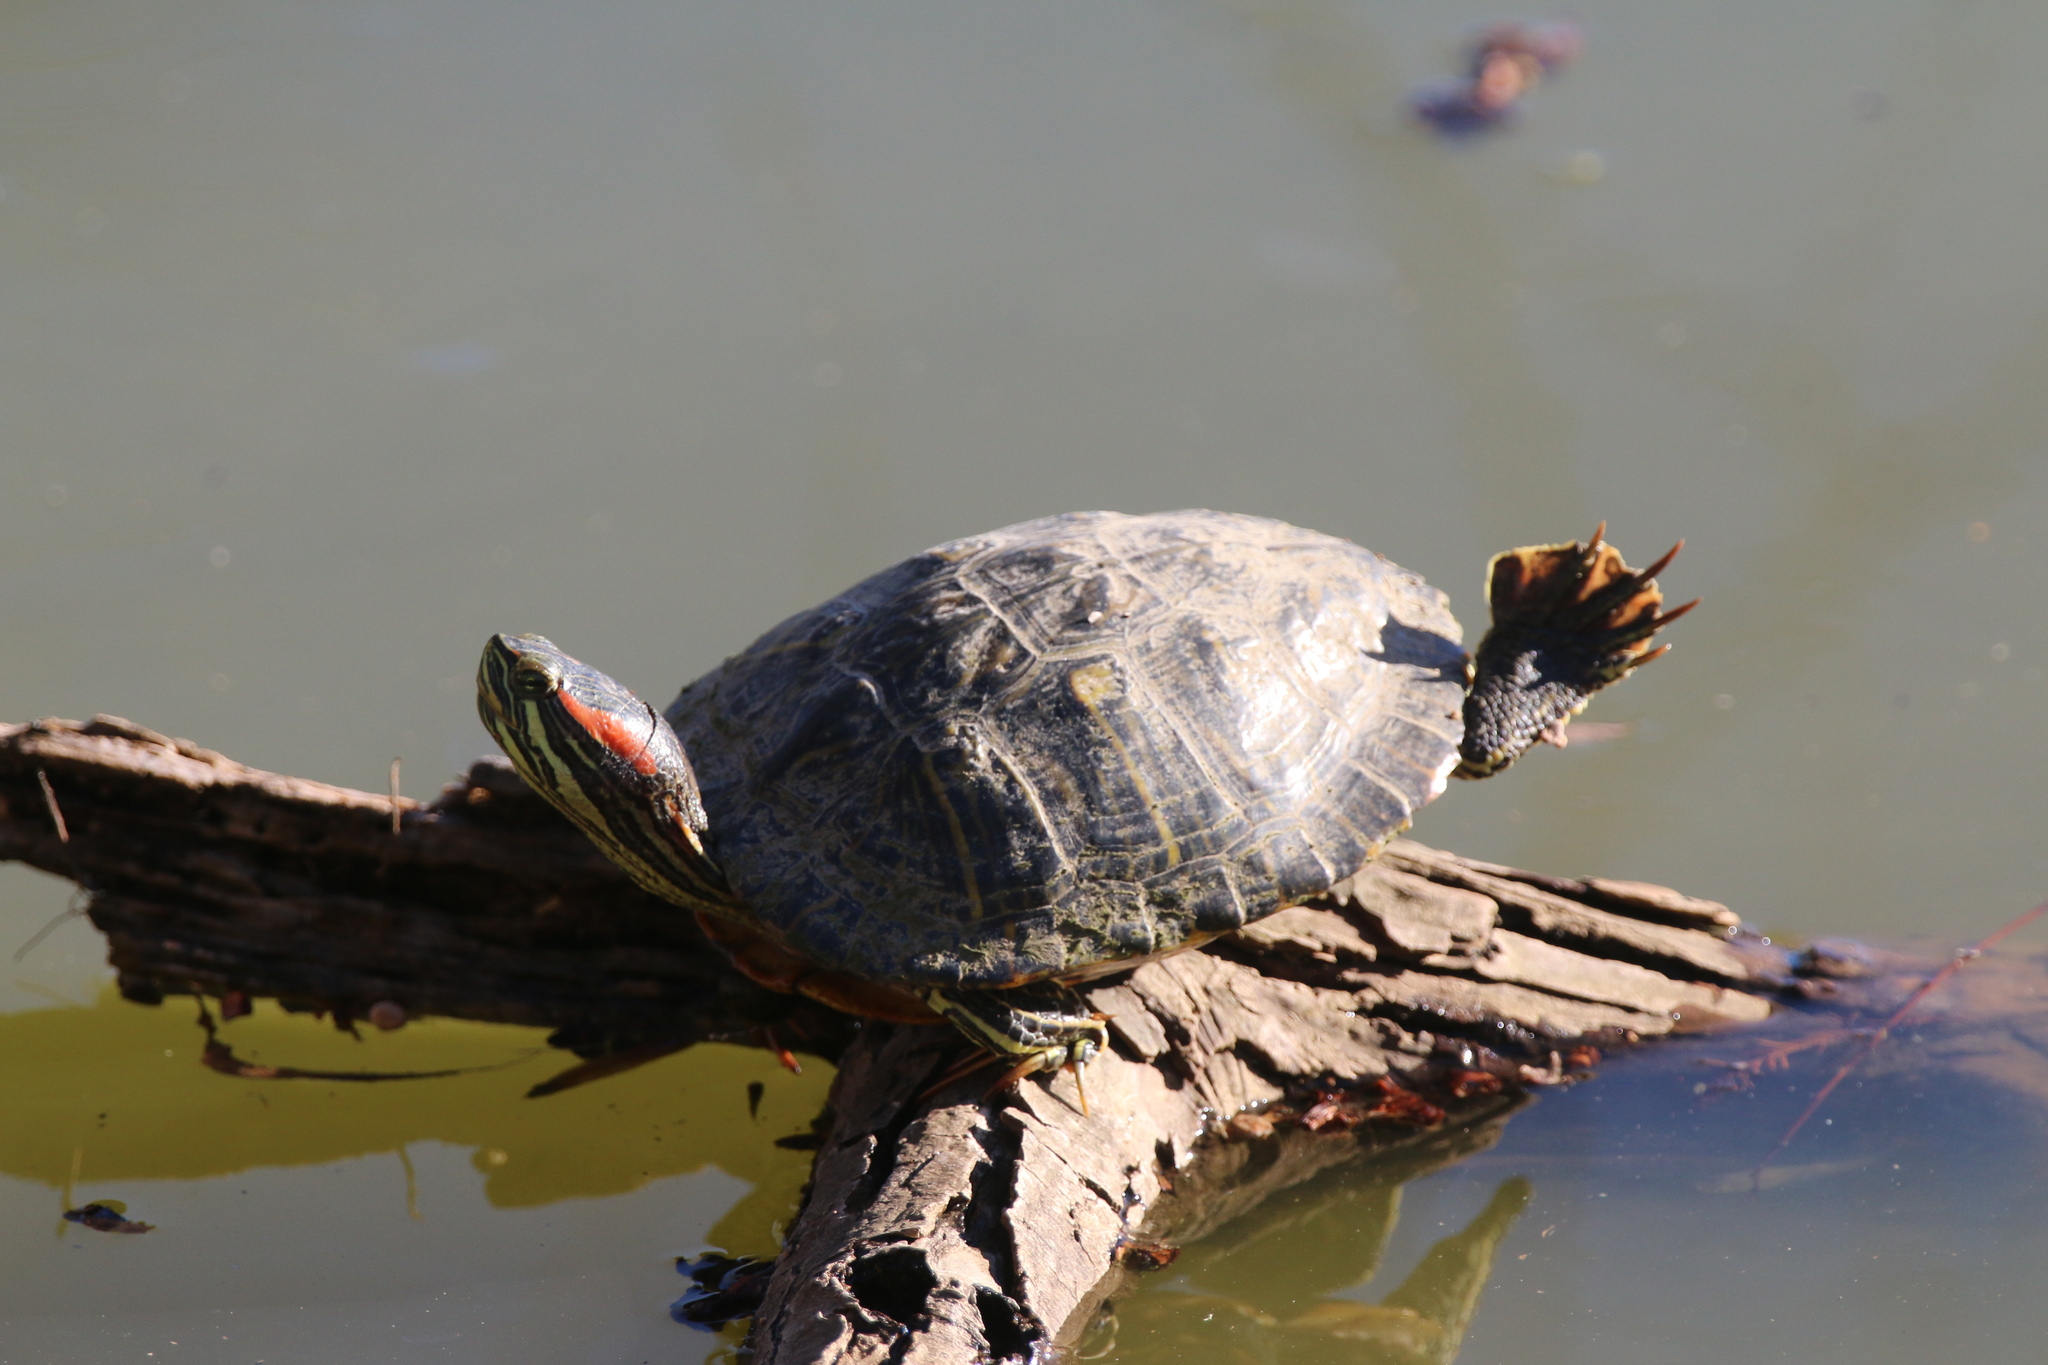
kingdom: Animalia
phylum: Chordata
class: Testudines
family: Emydidae
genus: Trachemys
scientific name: Trachemys scripta
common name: Slider
